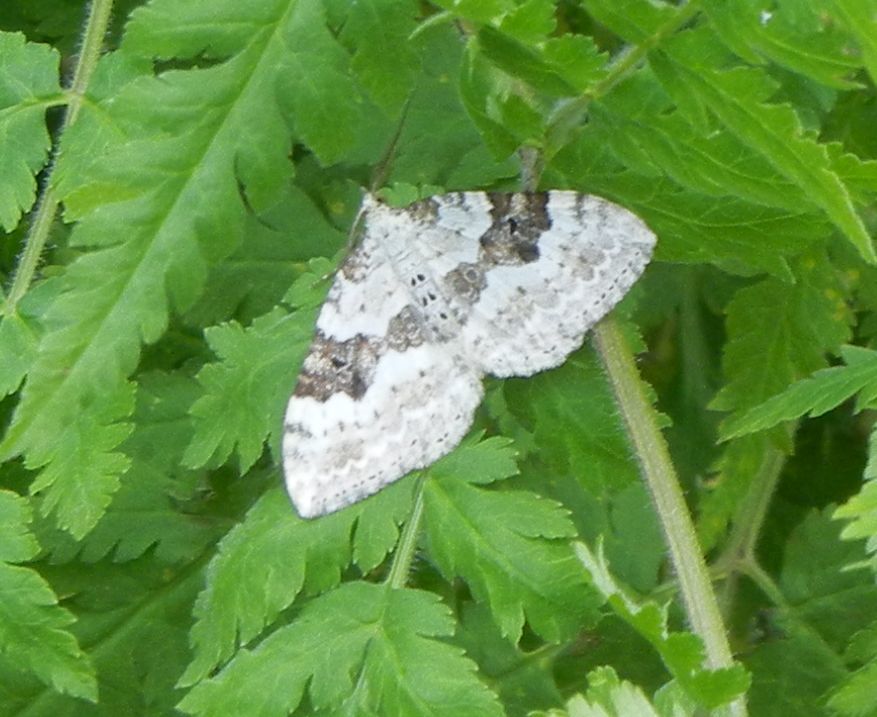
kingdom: Animalia
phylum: Arthropoda
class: Insecta
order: Lepidoptera
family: Geometridae
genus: Xanthorhoe
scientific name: Xanthorhoe montanata
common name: Silver-ground carpet
